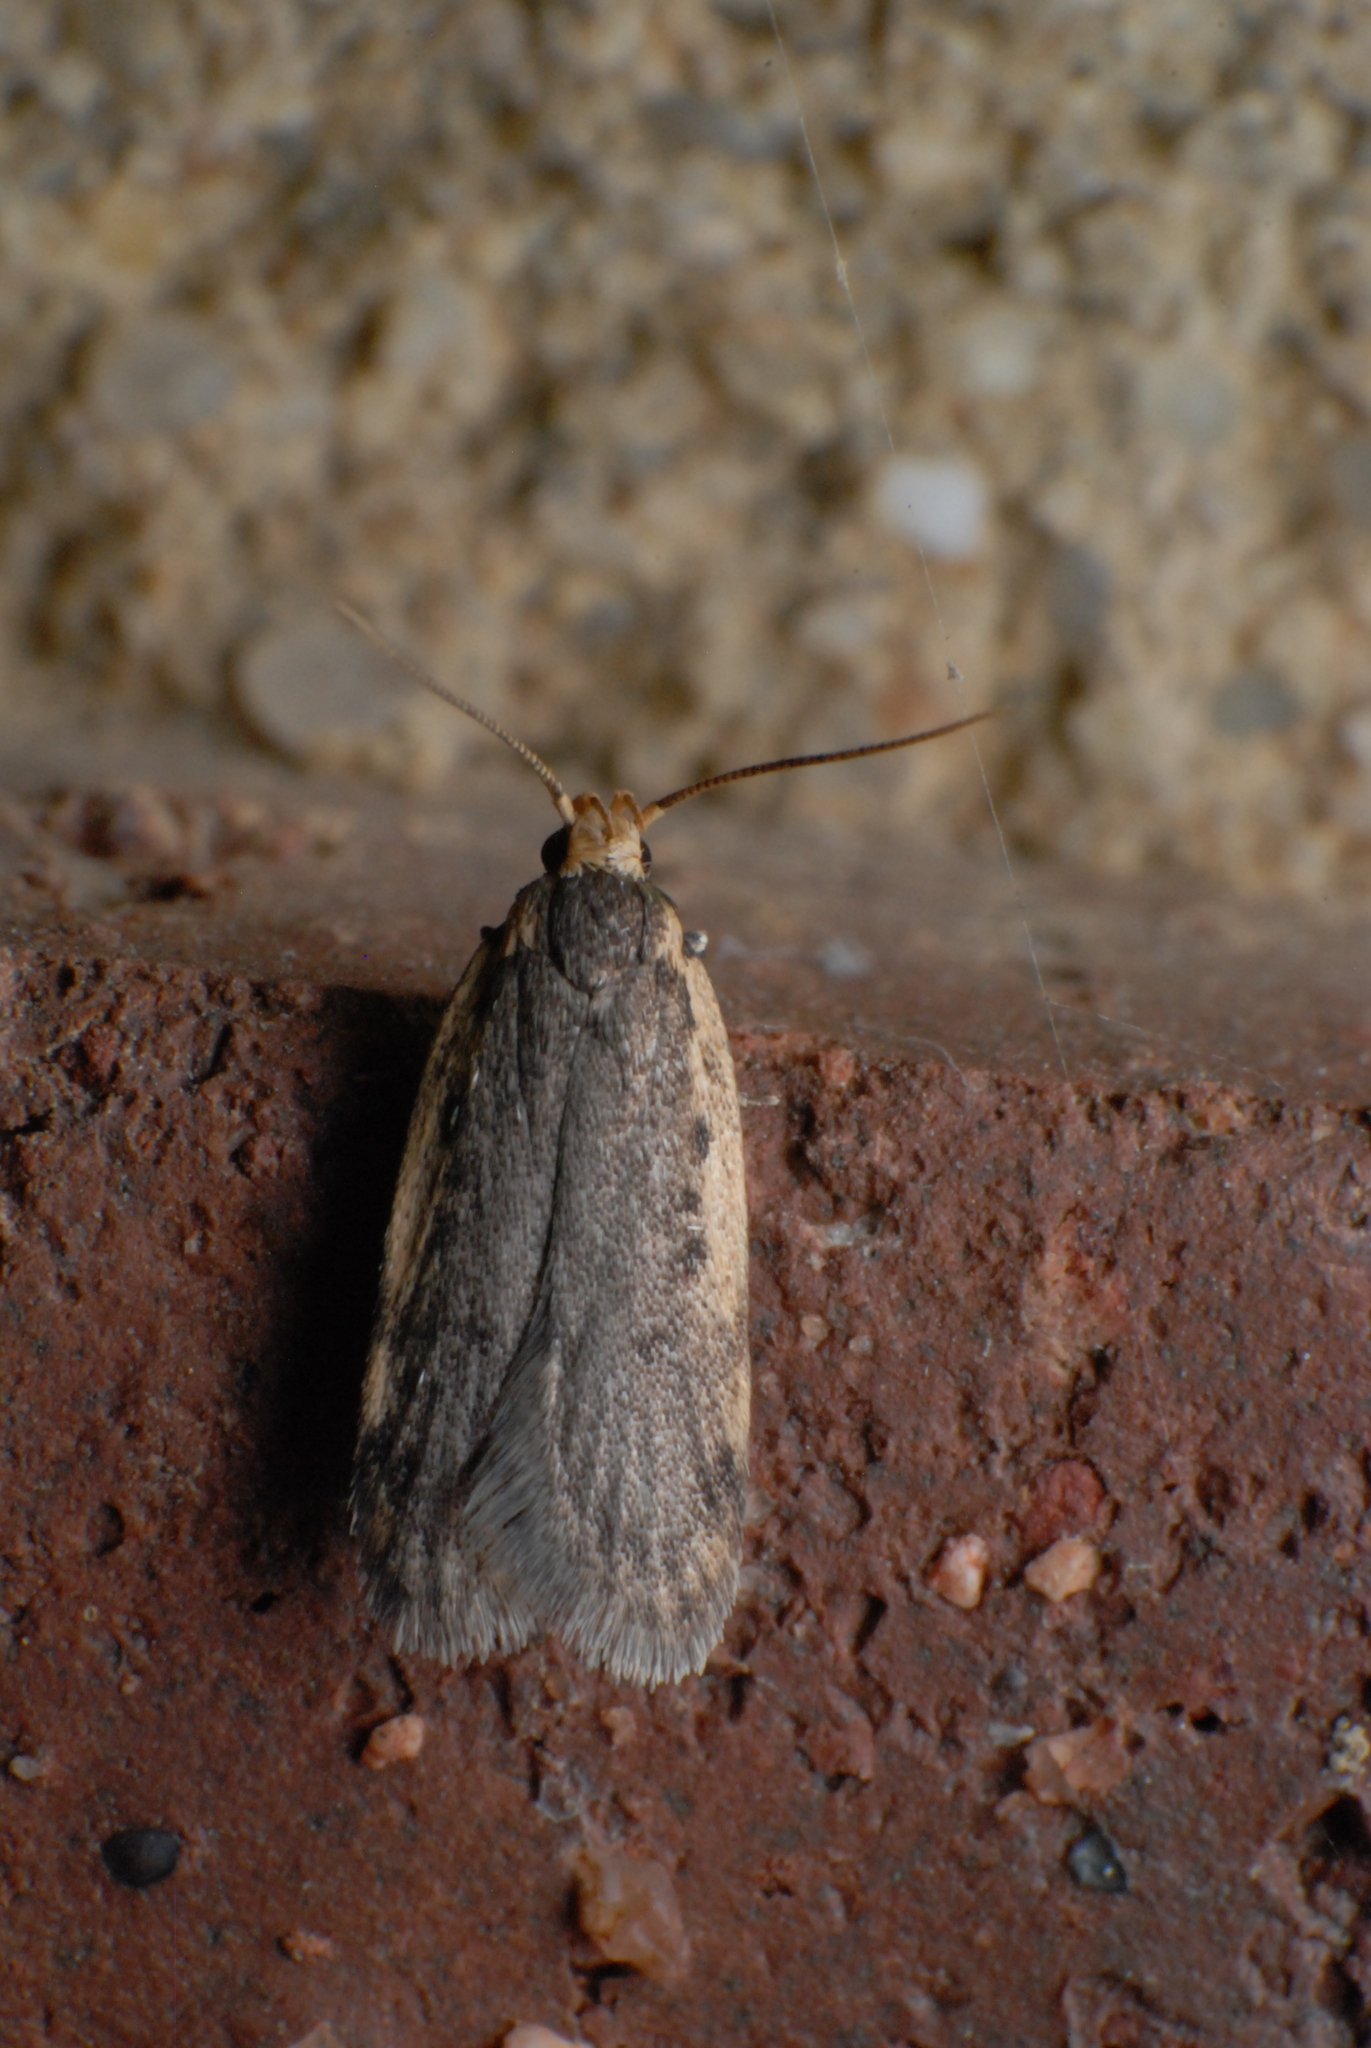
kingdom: Animalia
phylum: Arthropoda
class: Insecta
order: Lepidoptera
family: Oecophoridae
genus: Hoplostega
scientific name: Hoplostega ochroma
